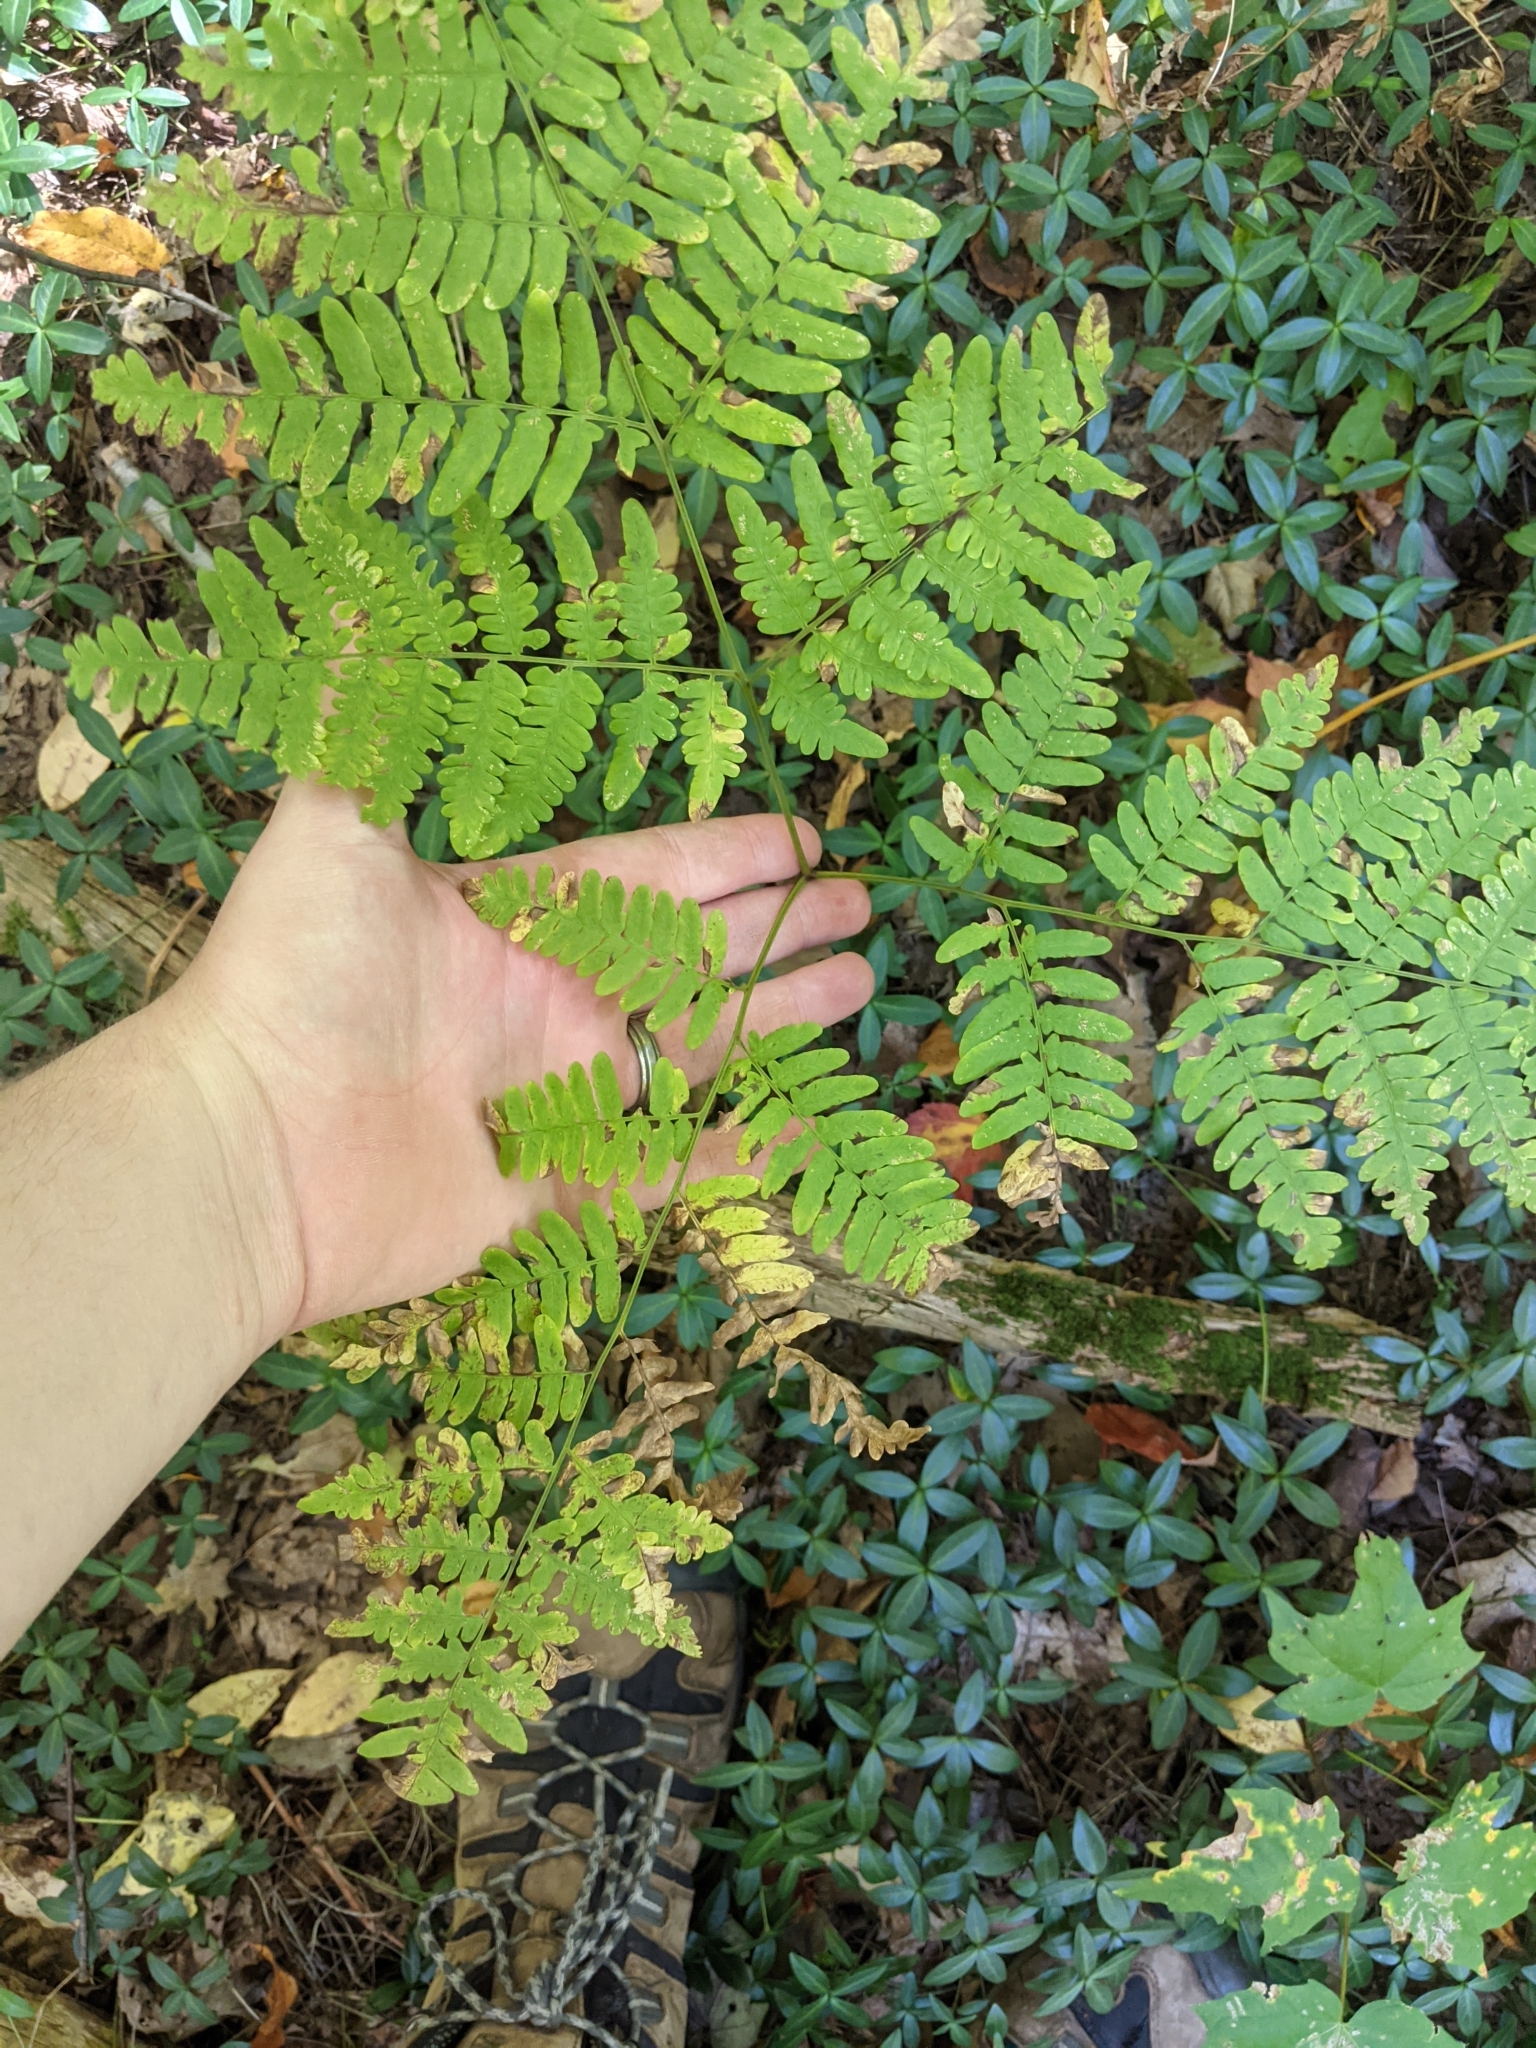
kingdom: Plantae
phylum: Tracheophyta
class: Polypodiopsida
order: Polypodiales
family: Dennstaedtiaceae
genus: Pteridium
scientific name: Pteridium aquilinum
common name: Bracken
